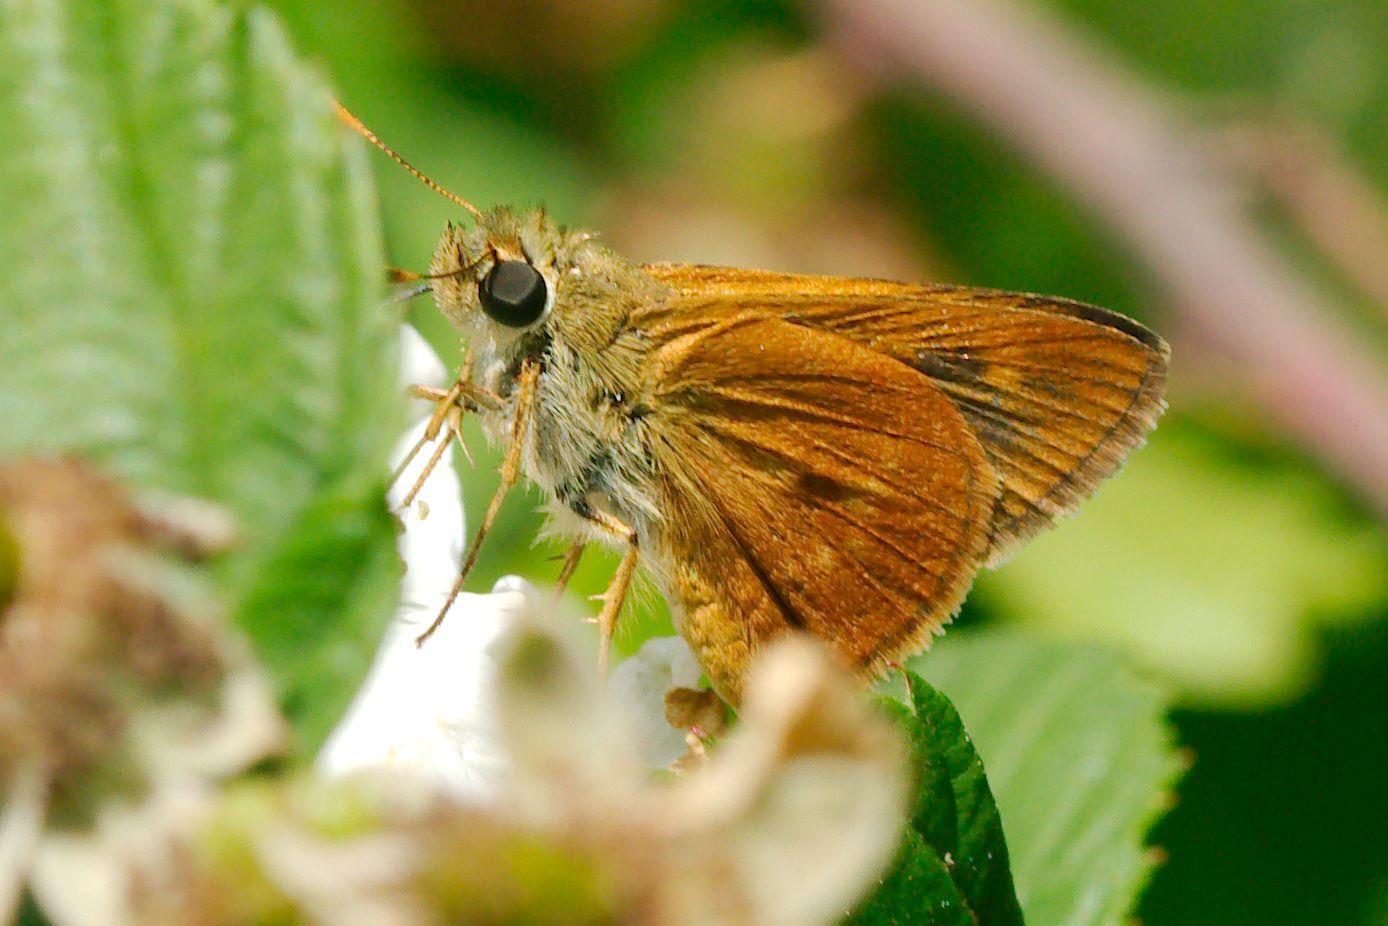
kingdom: Animalia
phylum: Arthropoda
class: Insecta
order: Lepidoptera
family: Hesperiidae
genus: Polites
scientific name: Polites otho
